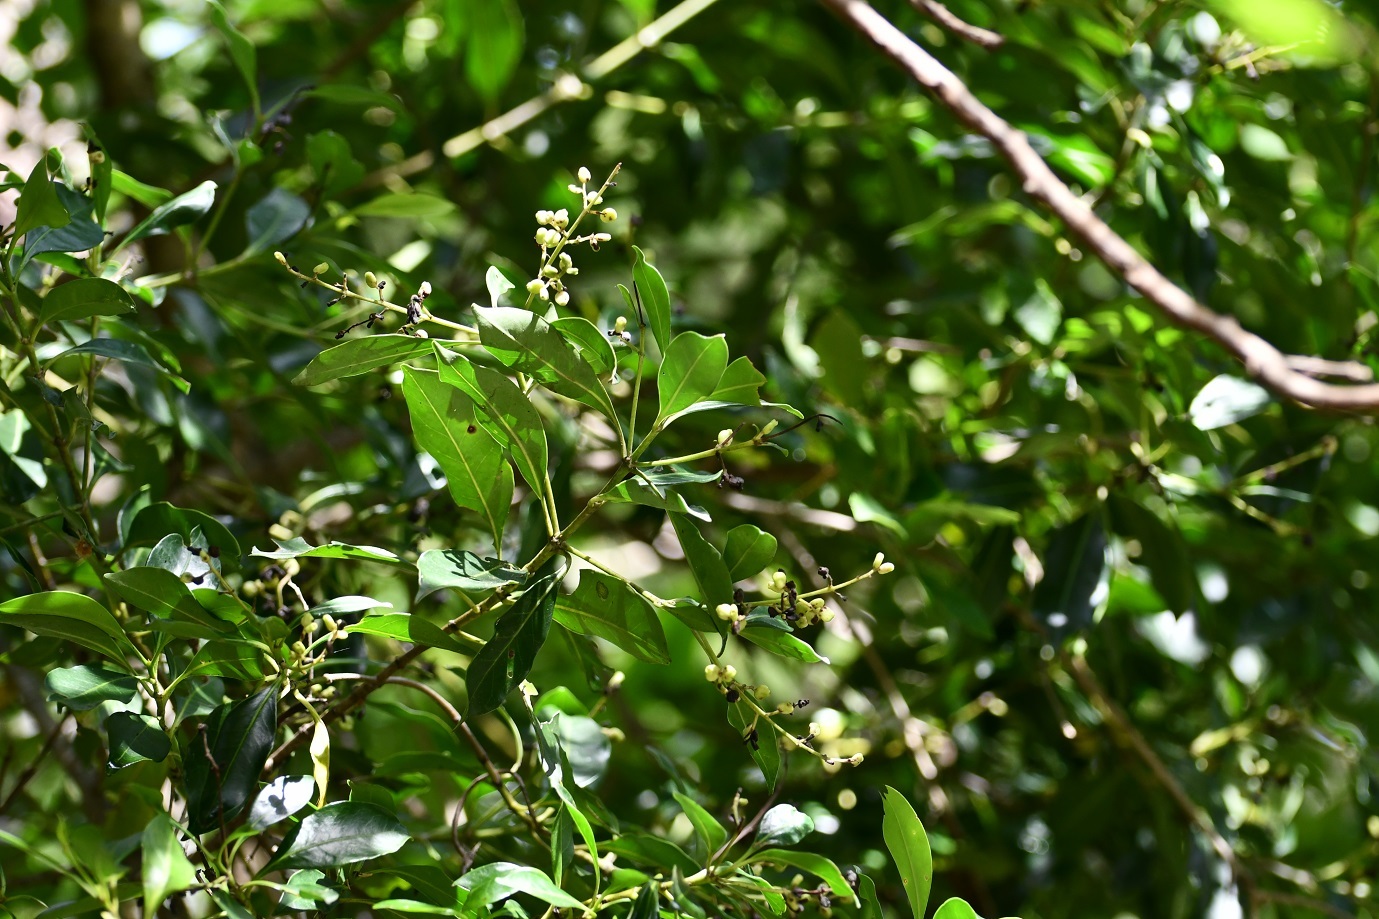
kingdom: Plantae
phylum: Tracheophyta
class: Magnoliopsida
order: Gentianales
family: Rubiaceae
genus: Chiococca
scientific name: Chiococca phaenostemon
